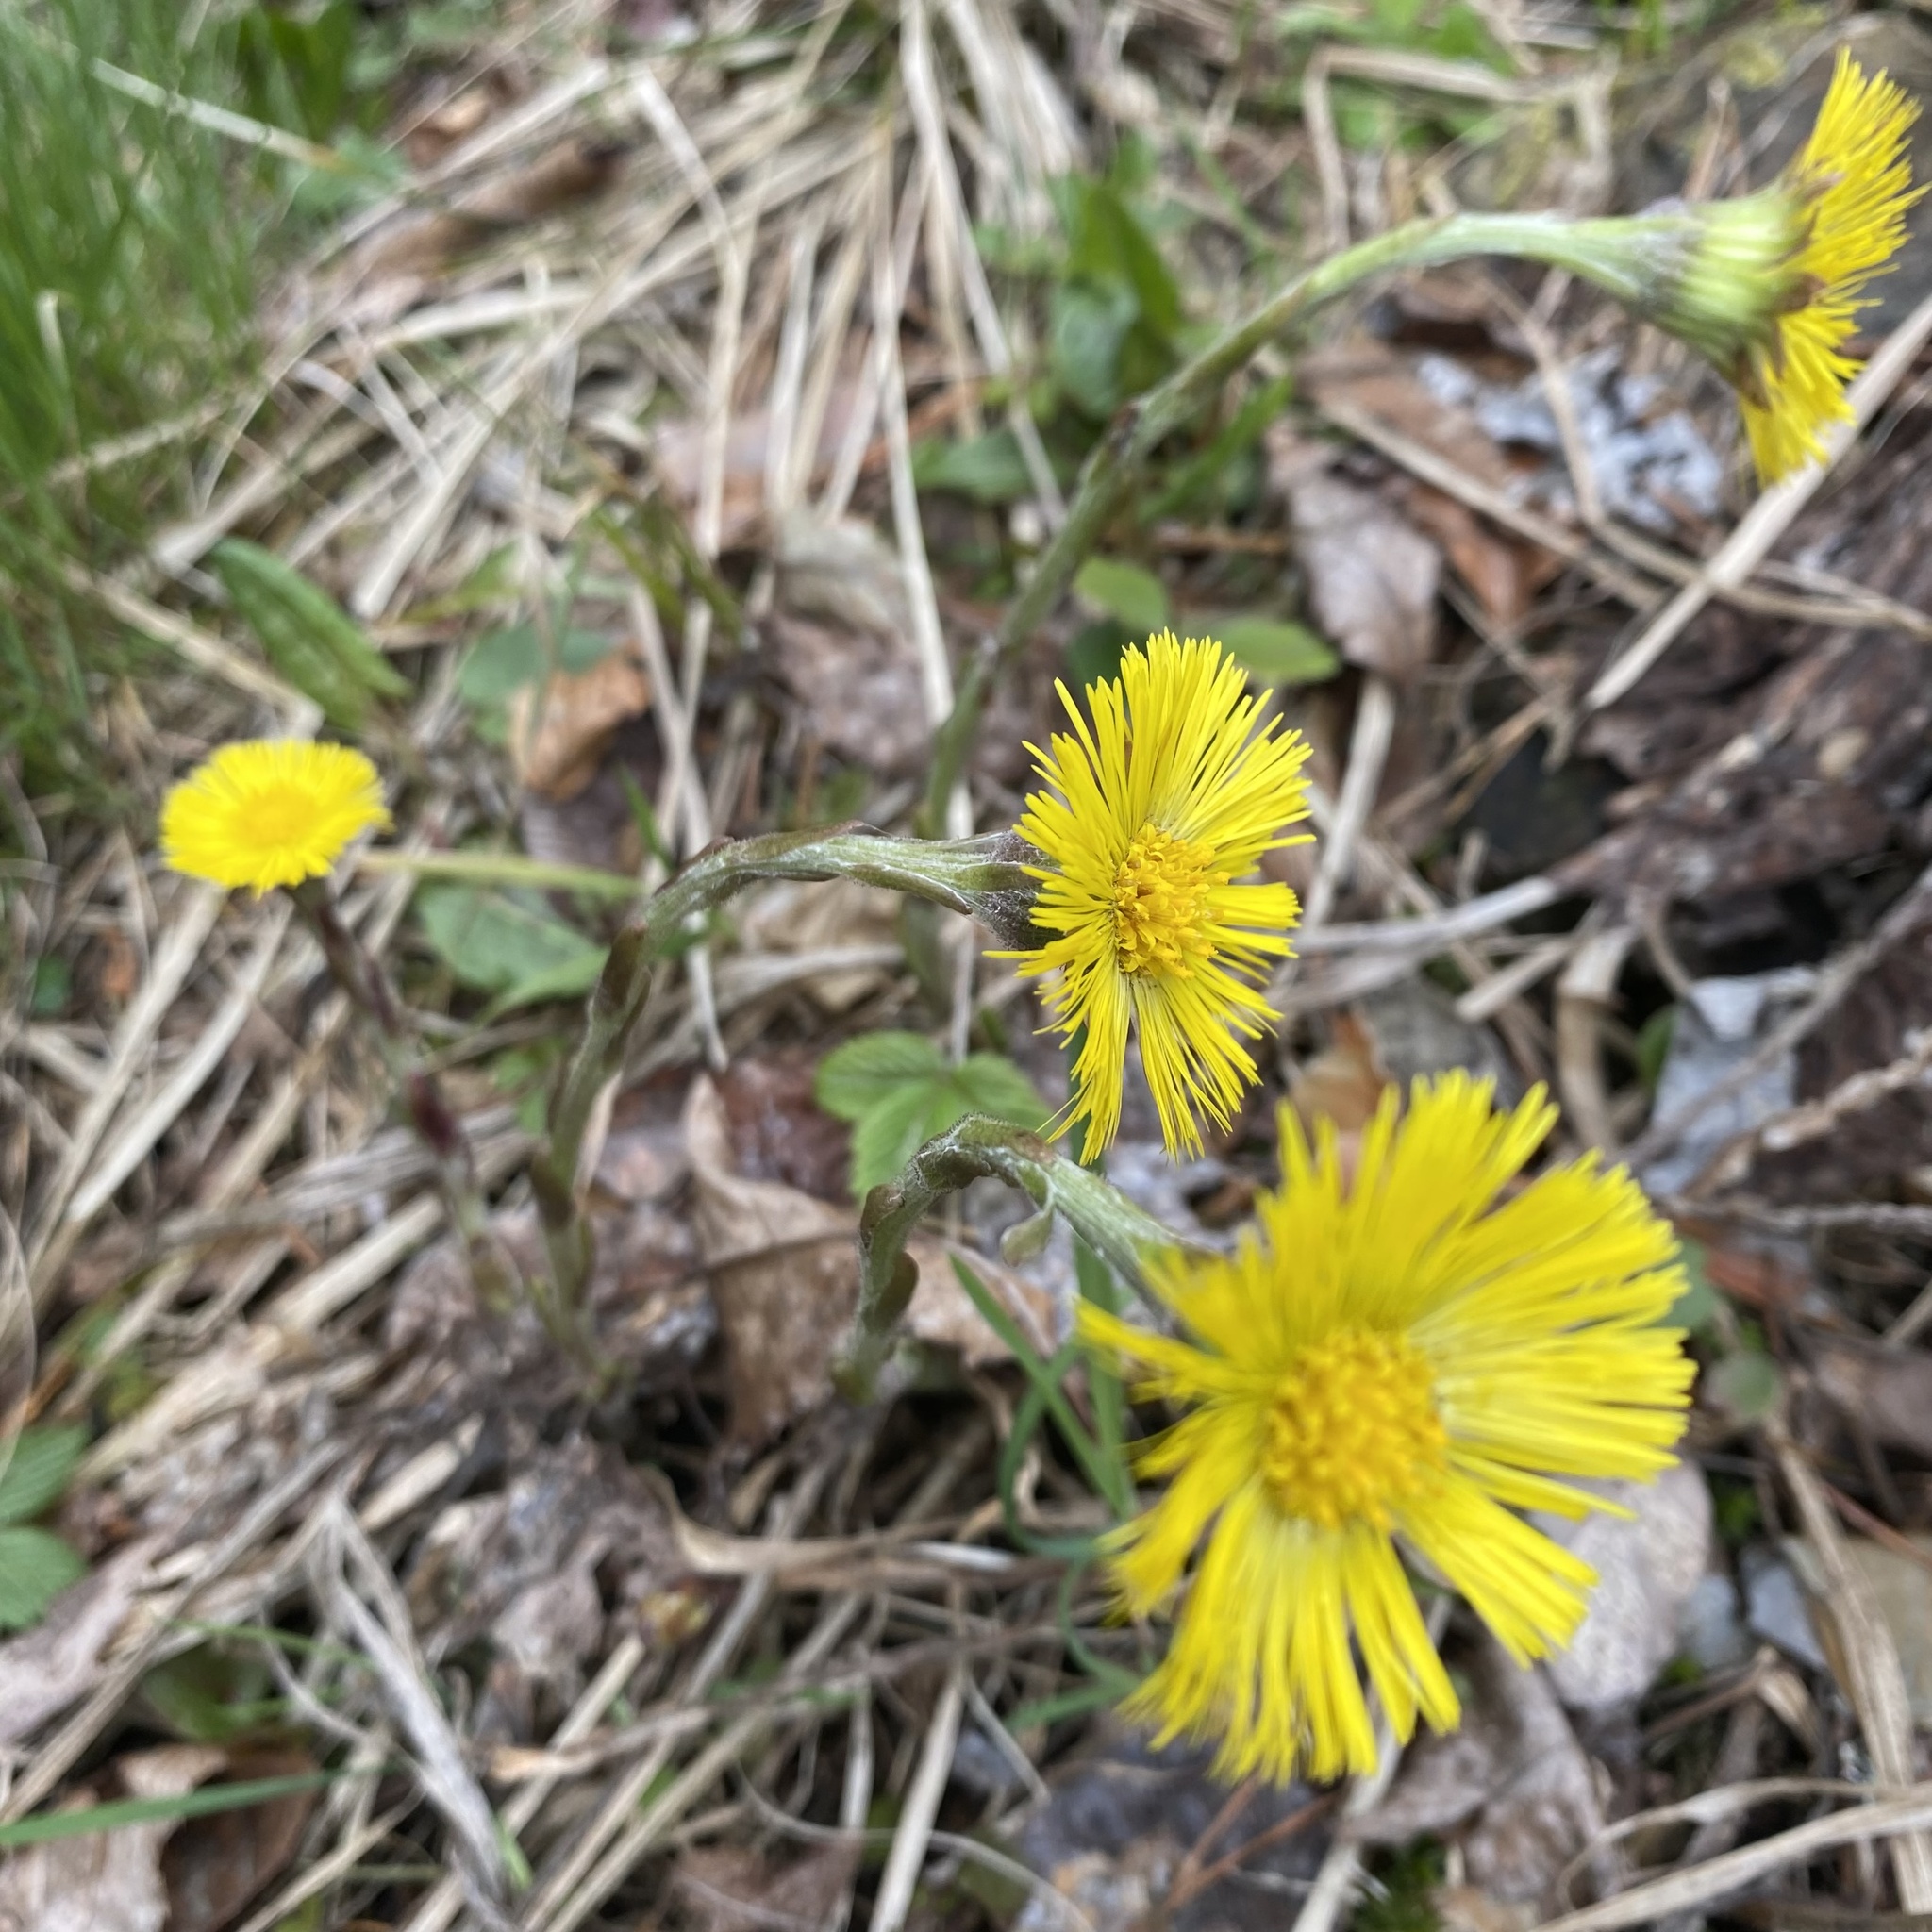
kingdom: Plantae
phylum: Tracheophyta
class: Magnoliopsida
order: Asterales
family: Asteraceae
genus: Tussilago
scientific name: Tussilago farfara
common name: Coltsfoot
